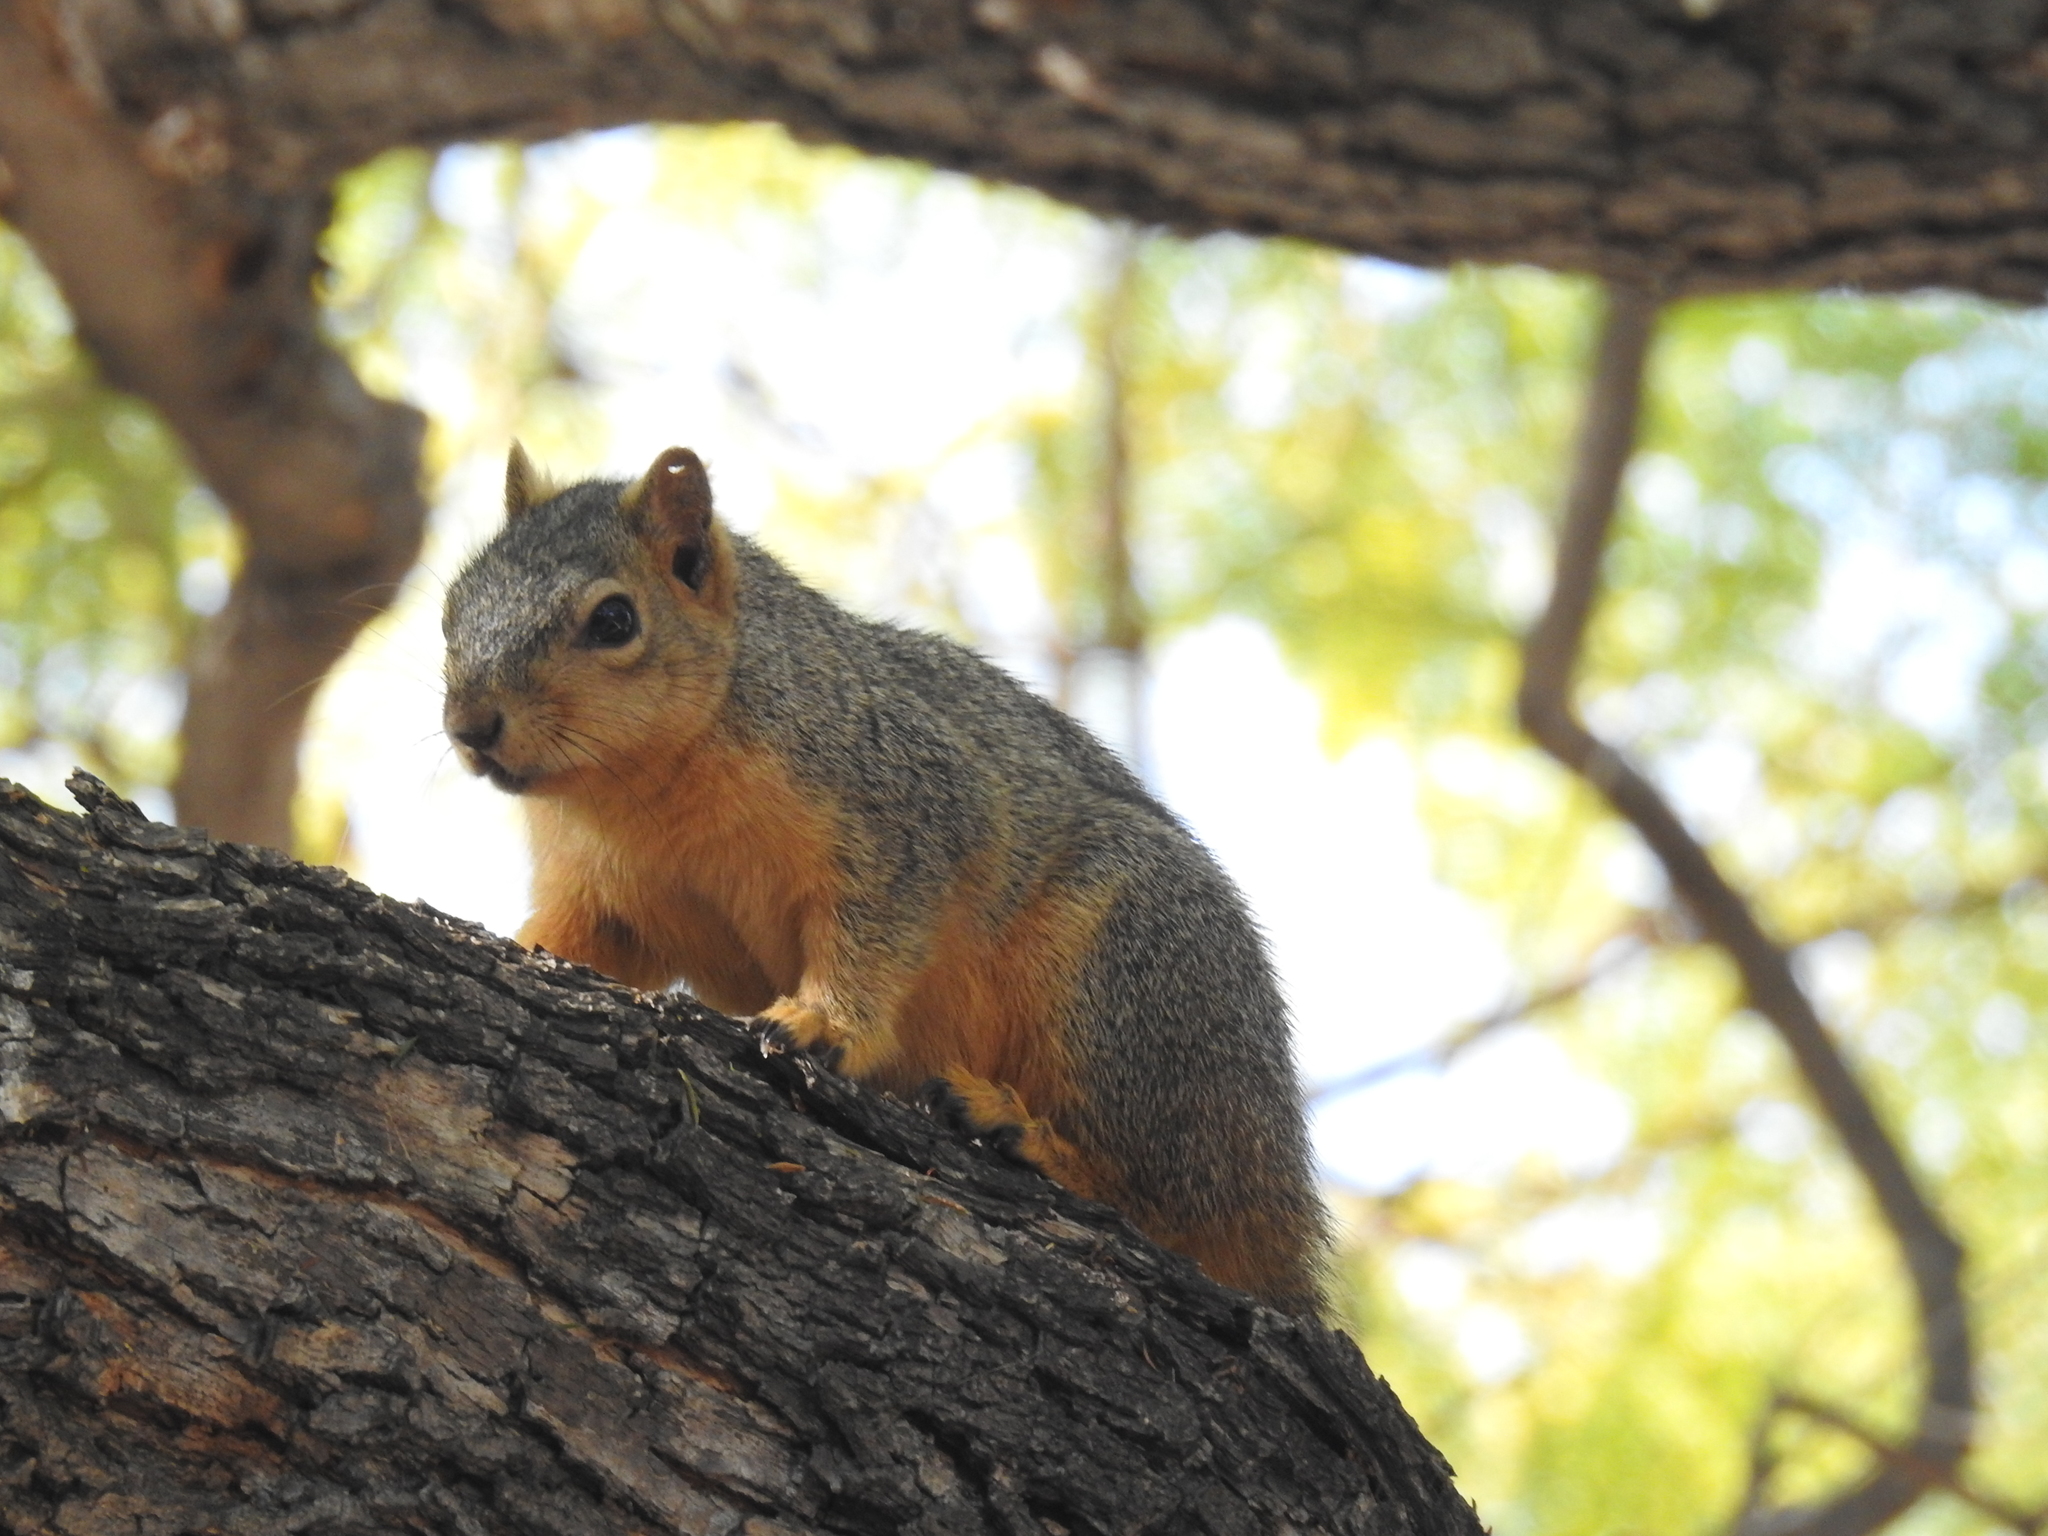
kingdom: Animalia
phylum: Chordata
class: Mammalia
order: Rodentia
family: Sciuridae
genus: Sciurus
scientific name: Sciurus niger
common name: Fox squirrel
